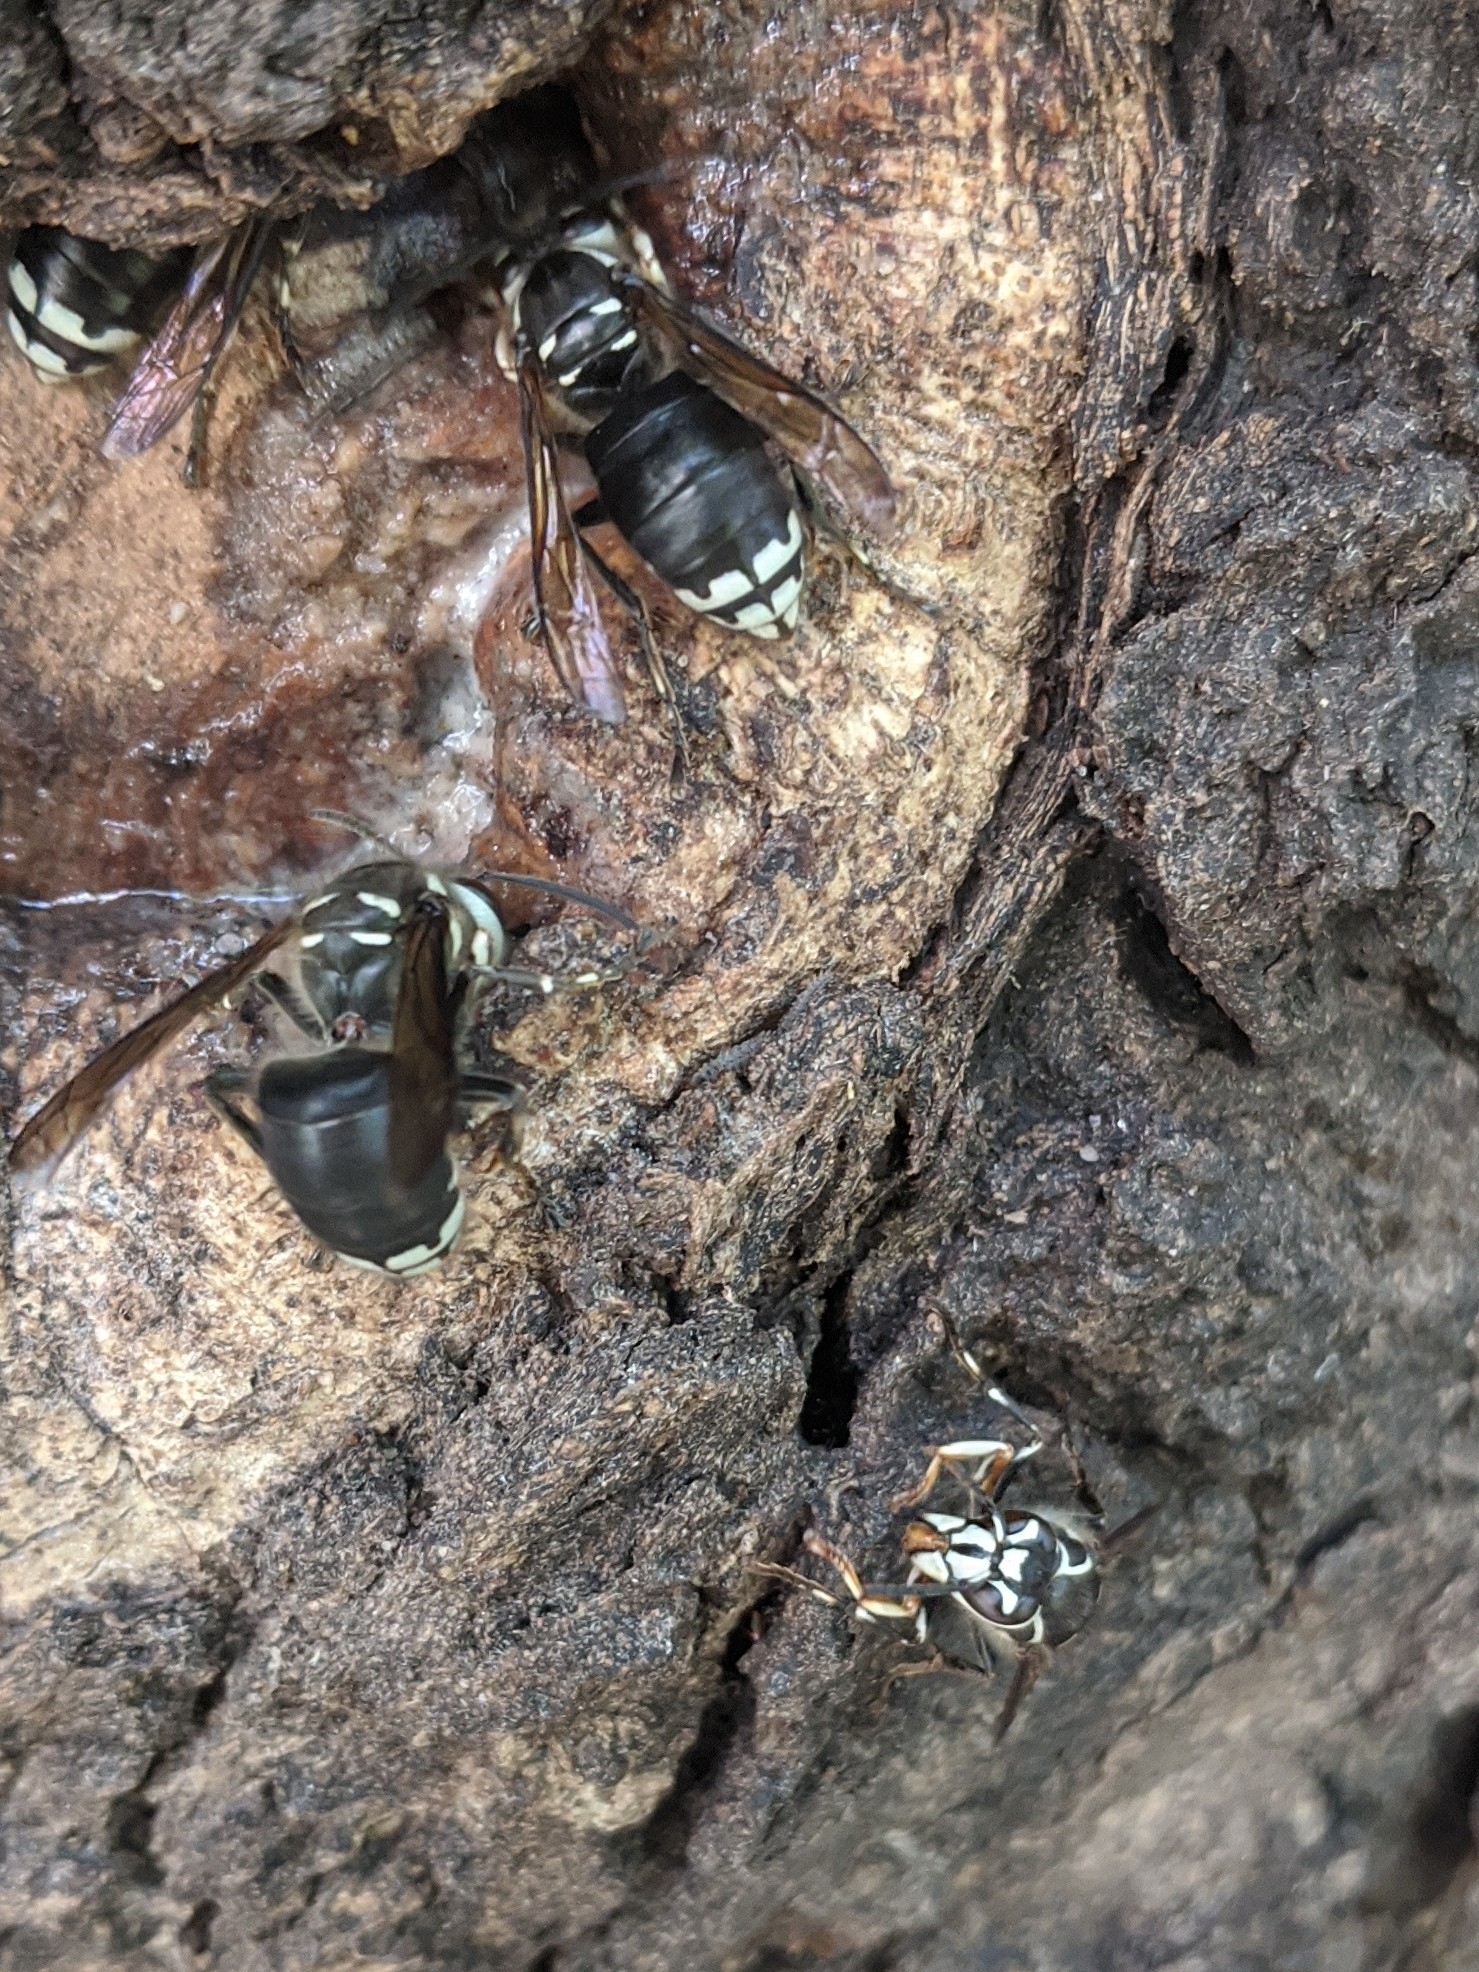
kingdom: Animalia
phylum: Arthropoda
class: Insecta
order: Hymenoptera
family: Vespidae
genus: Dolichovespula
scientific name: Dolichovespula maculata
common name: Bald-faced hornet
